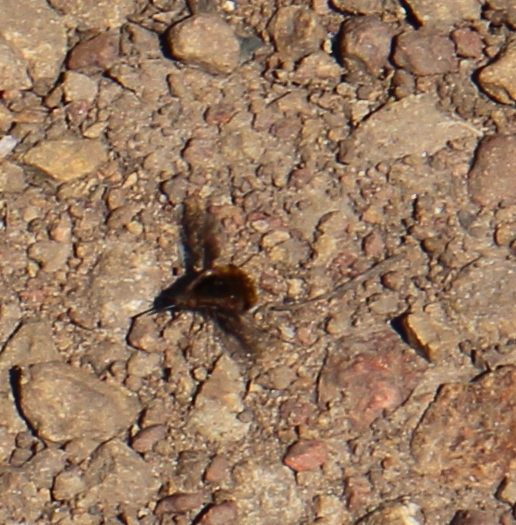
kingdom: Animalia
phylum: Arthropoda
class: Insecta
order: Diptera
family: Bombyliidae
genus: Bombylius
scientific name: Bombylius major
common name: Bee fly
